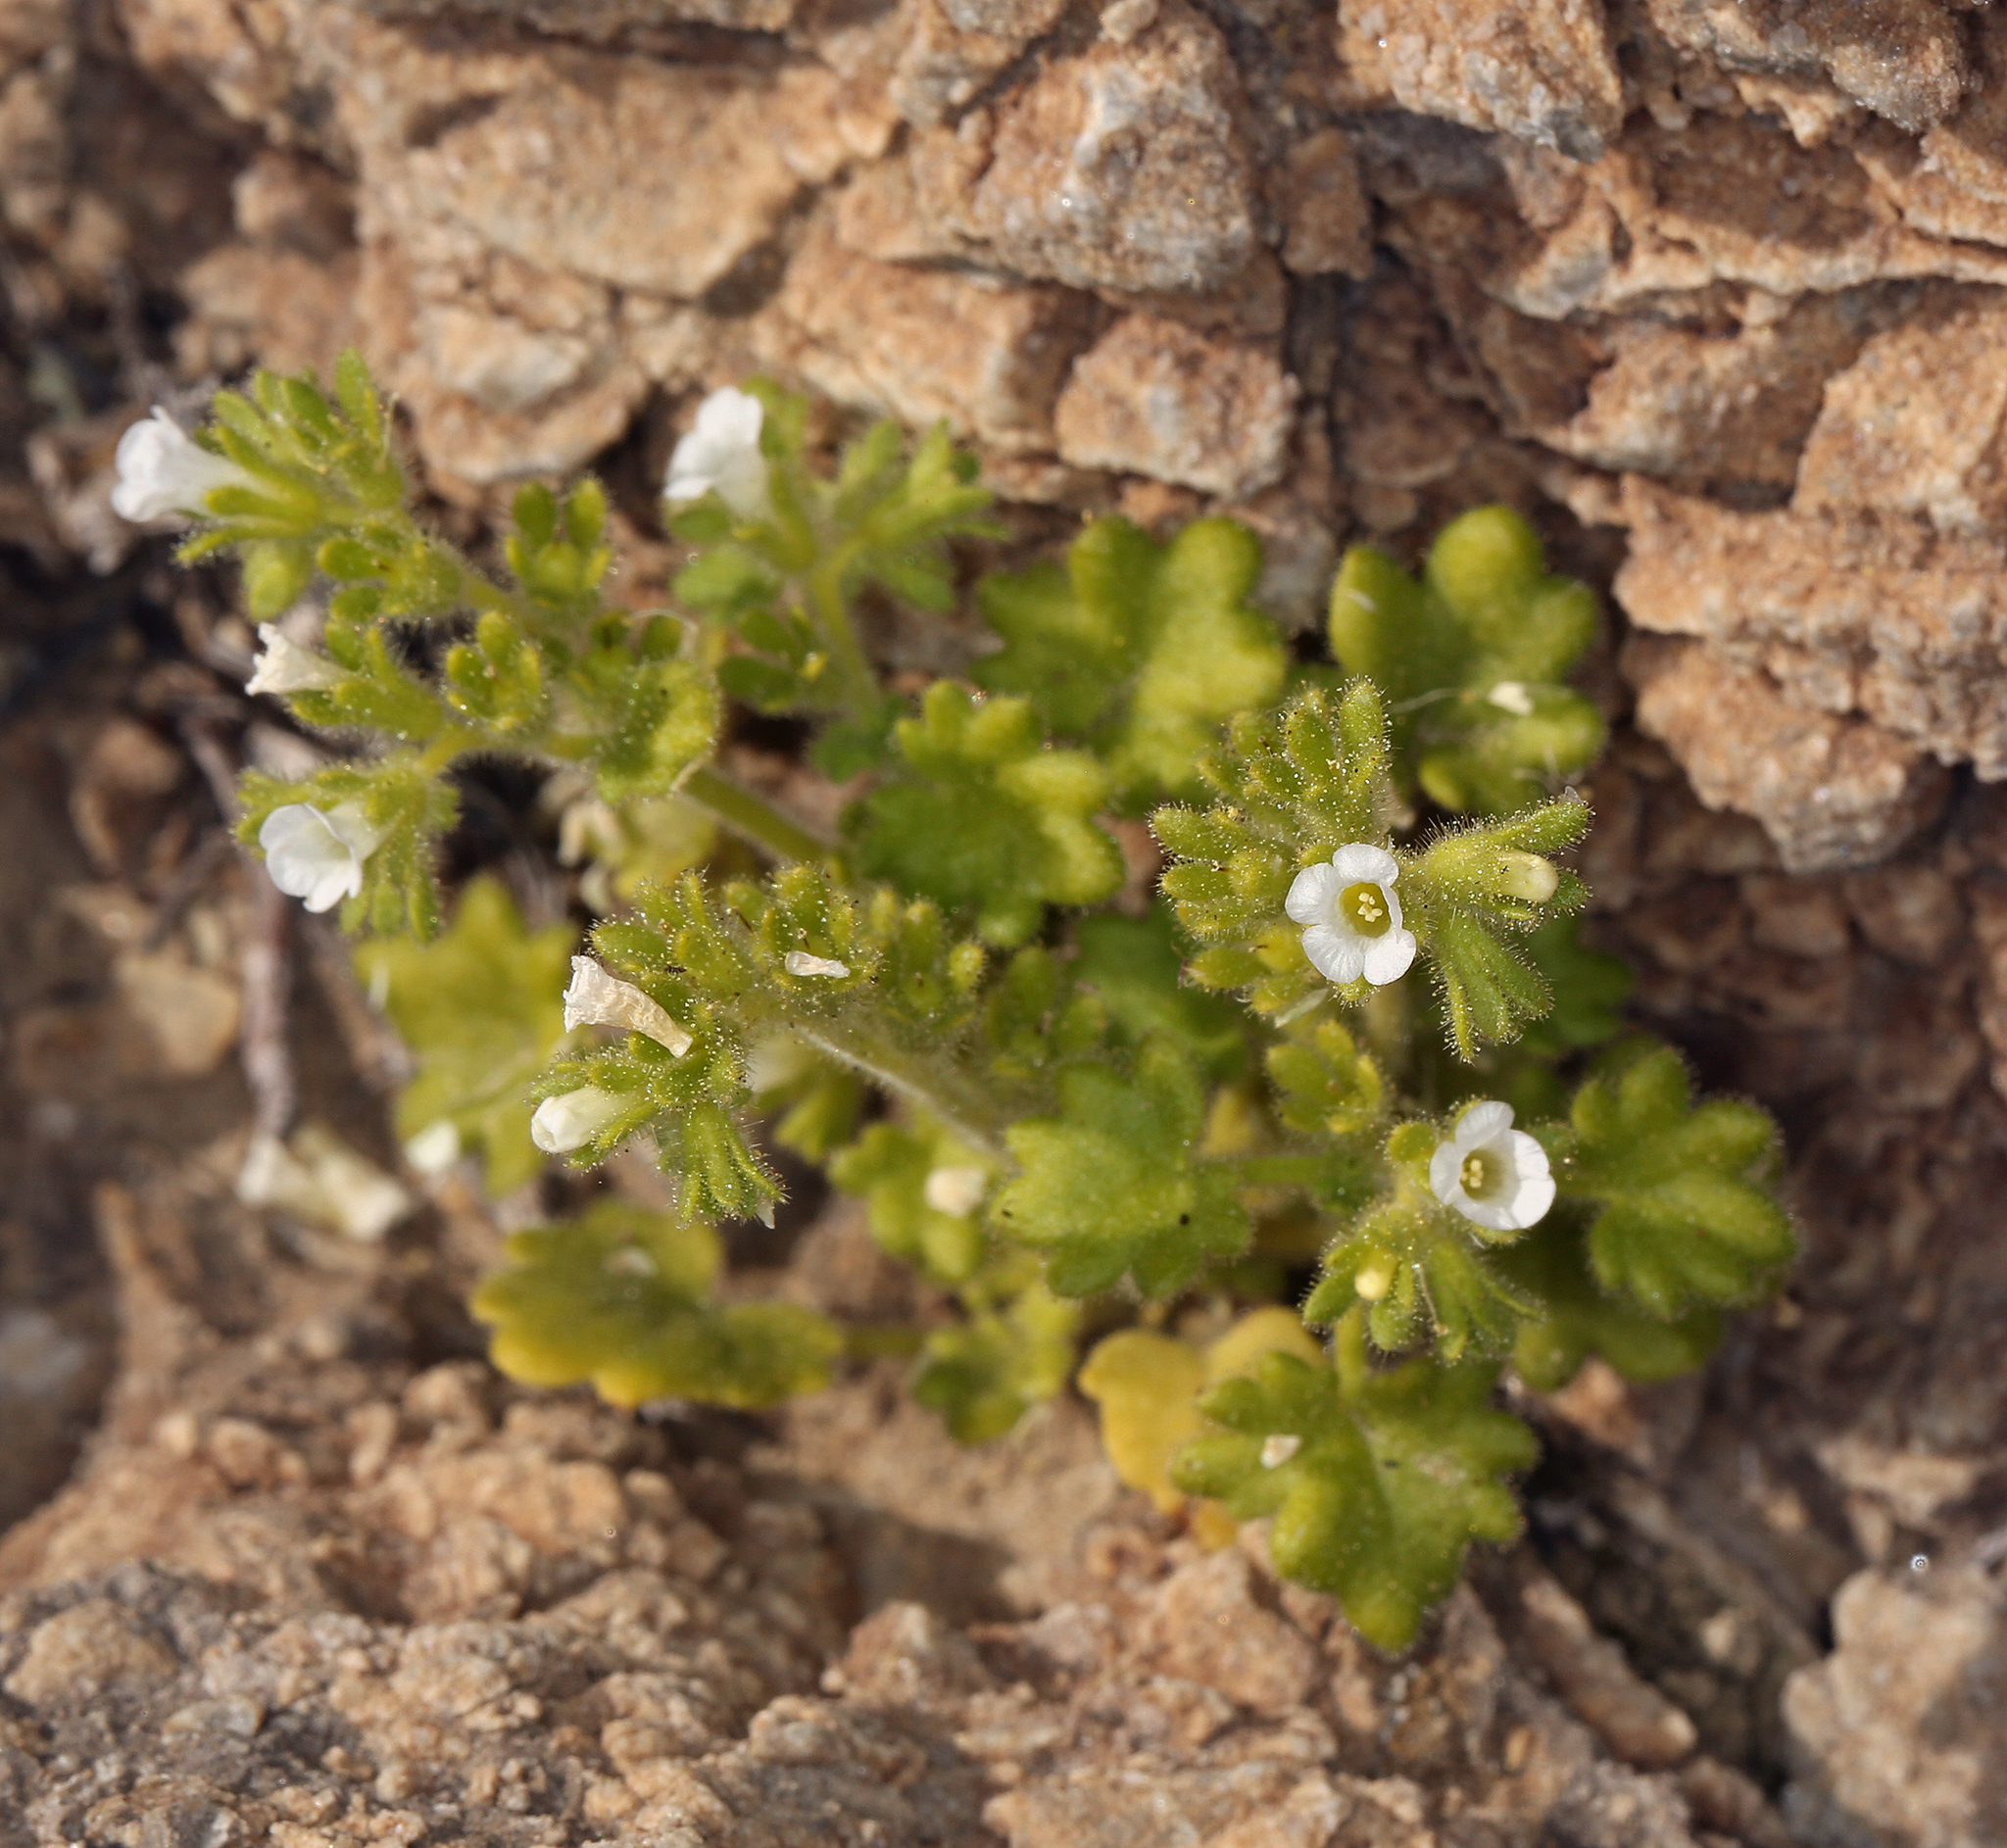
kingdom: Plantae
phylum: Tracheophyta
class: Magnoliopsida
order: Boraginales
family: Hydrophyllaceae
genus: Phacelia
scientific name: Phacelia rotundifolia
